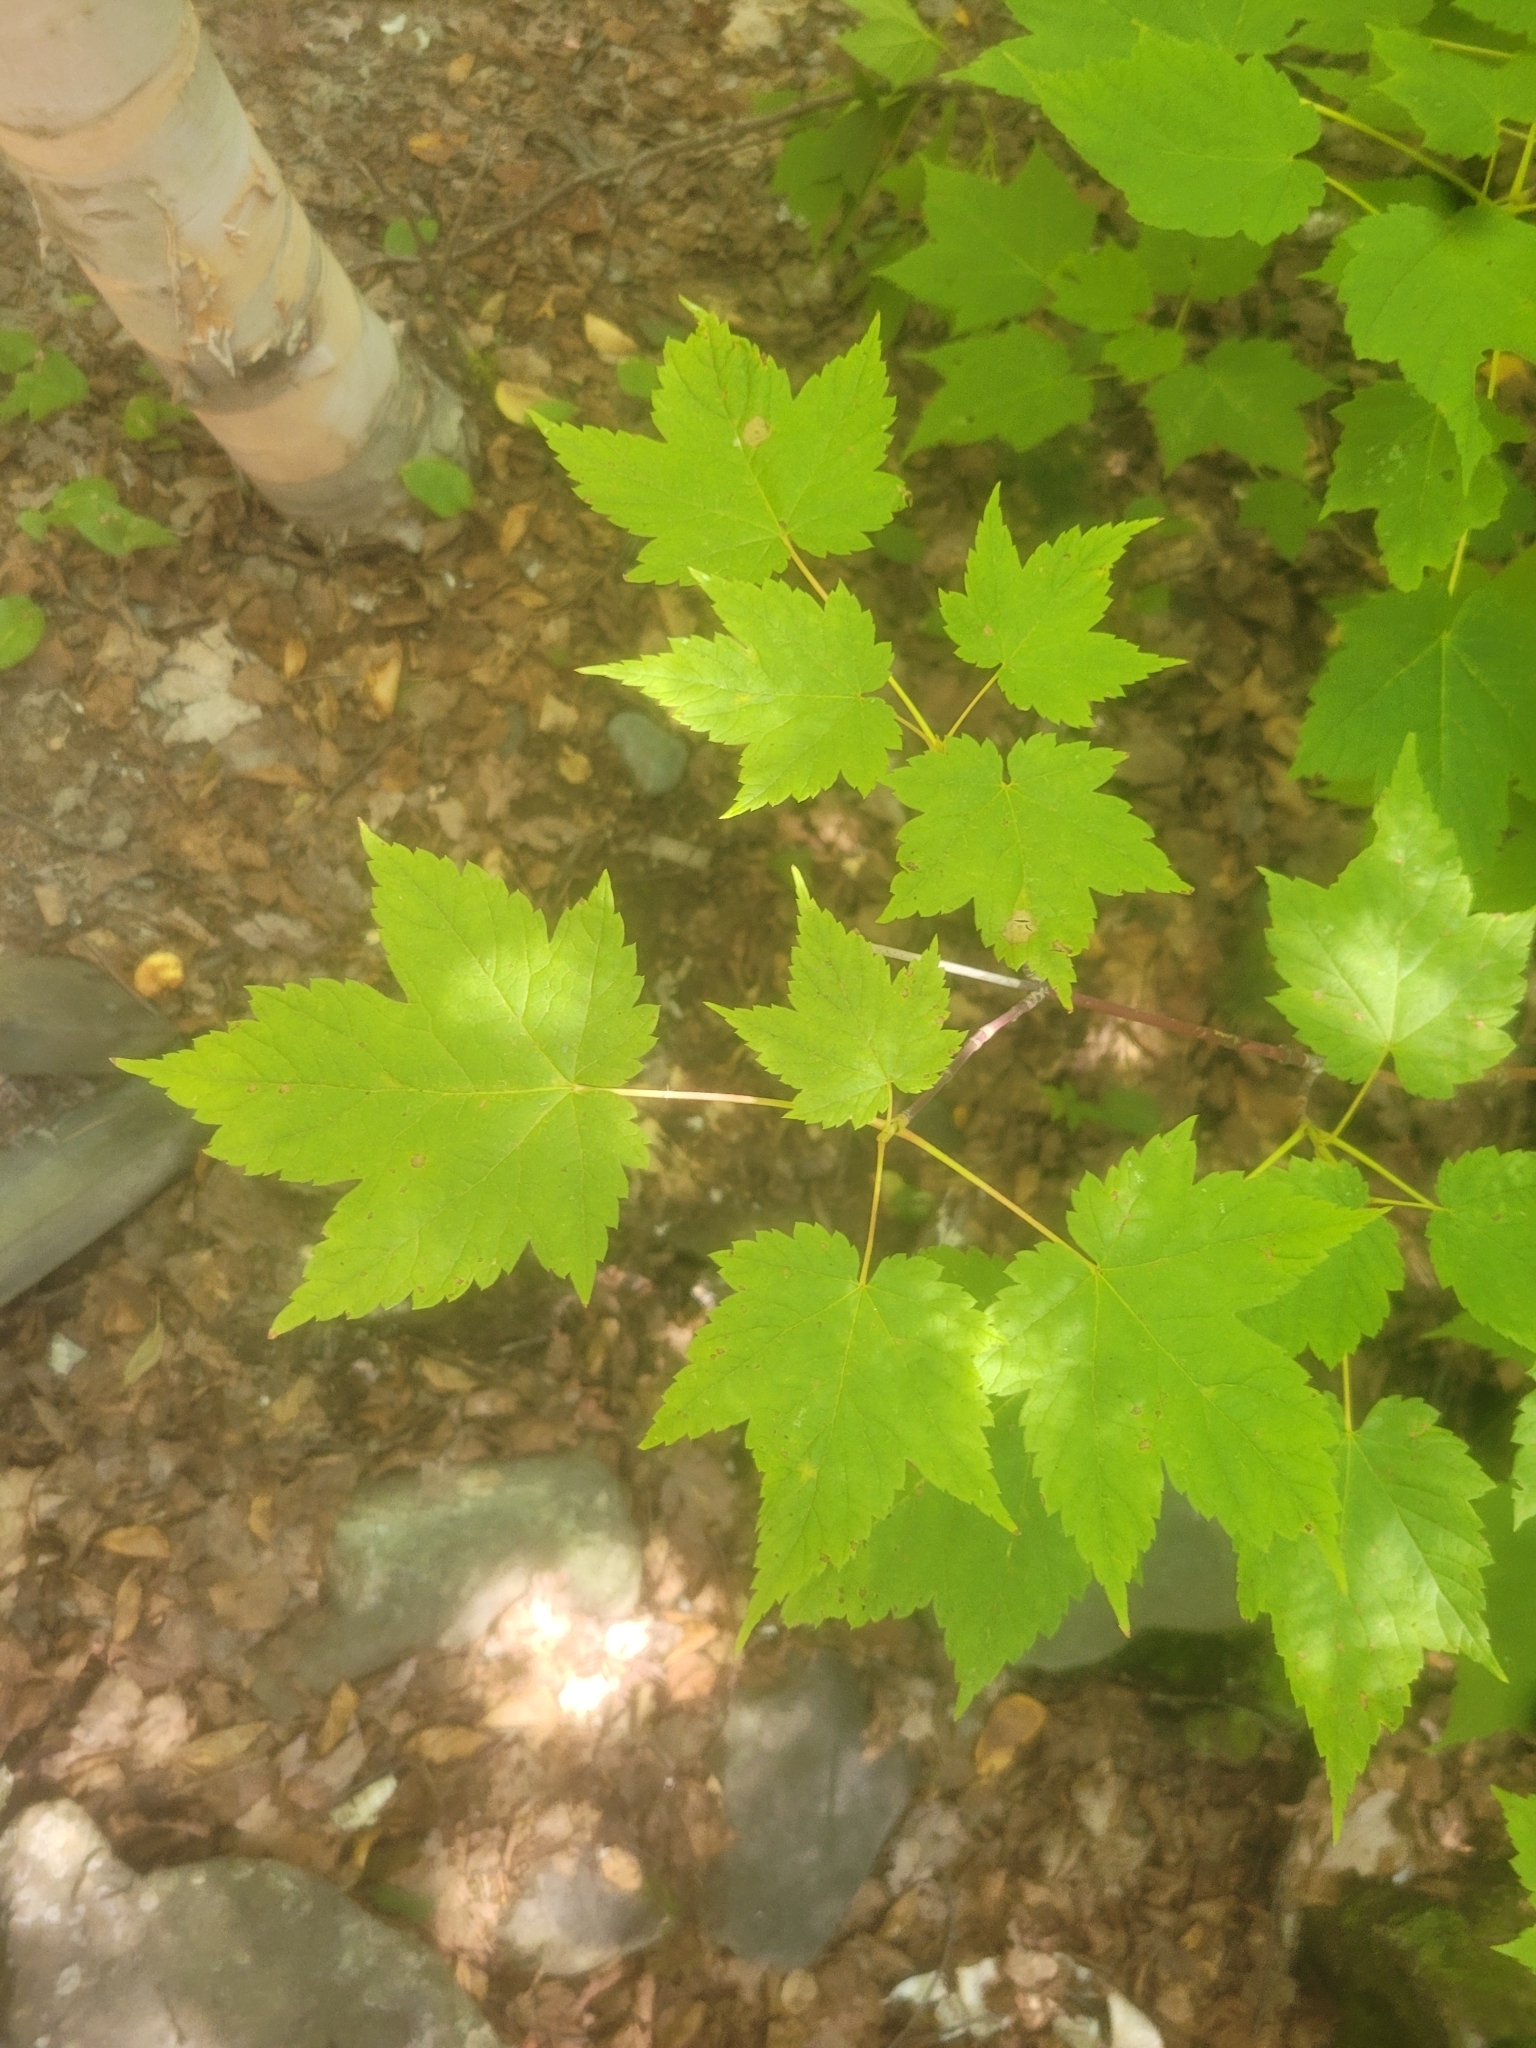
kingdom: Plantae
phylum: Tracheophyta
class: Magnoliopsida
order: Sapindales
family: Sapindaceae
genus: Acer
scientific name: Acer spicatum
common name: Mountain maple
